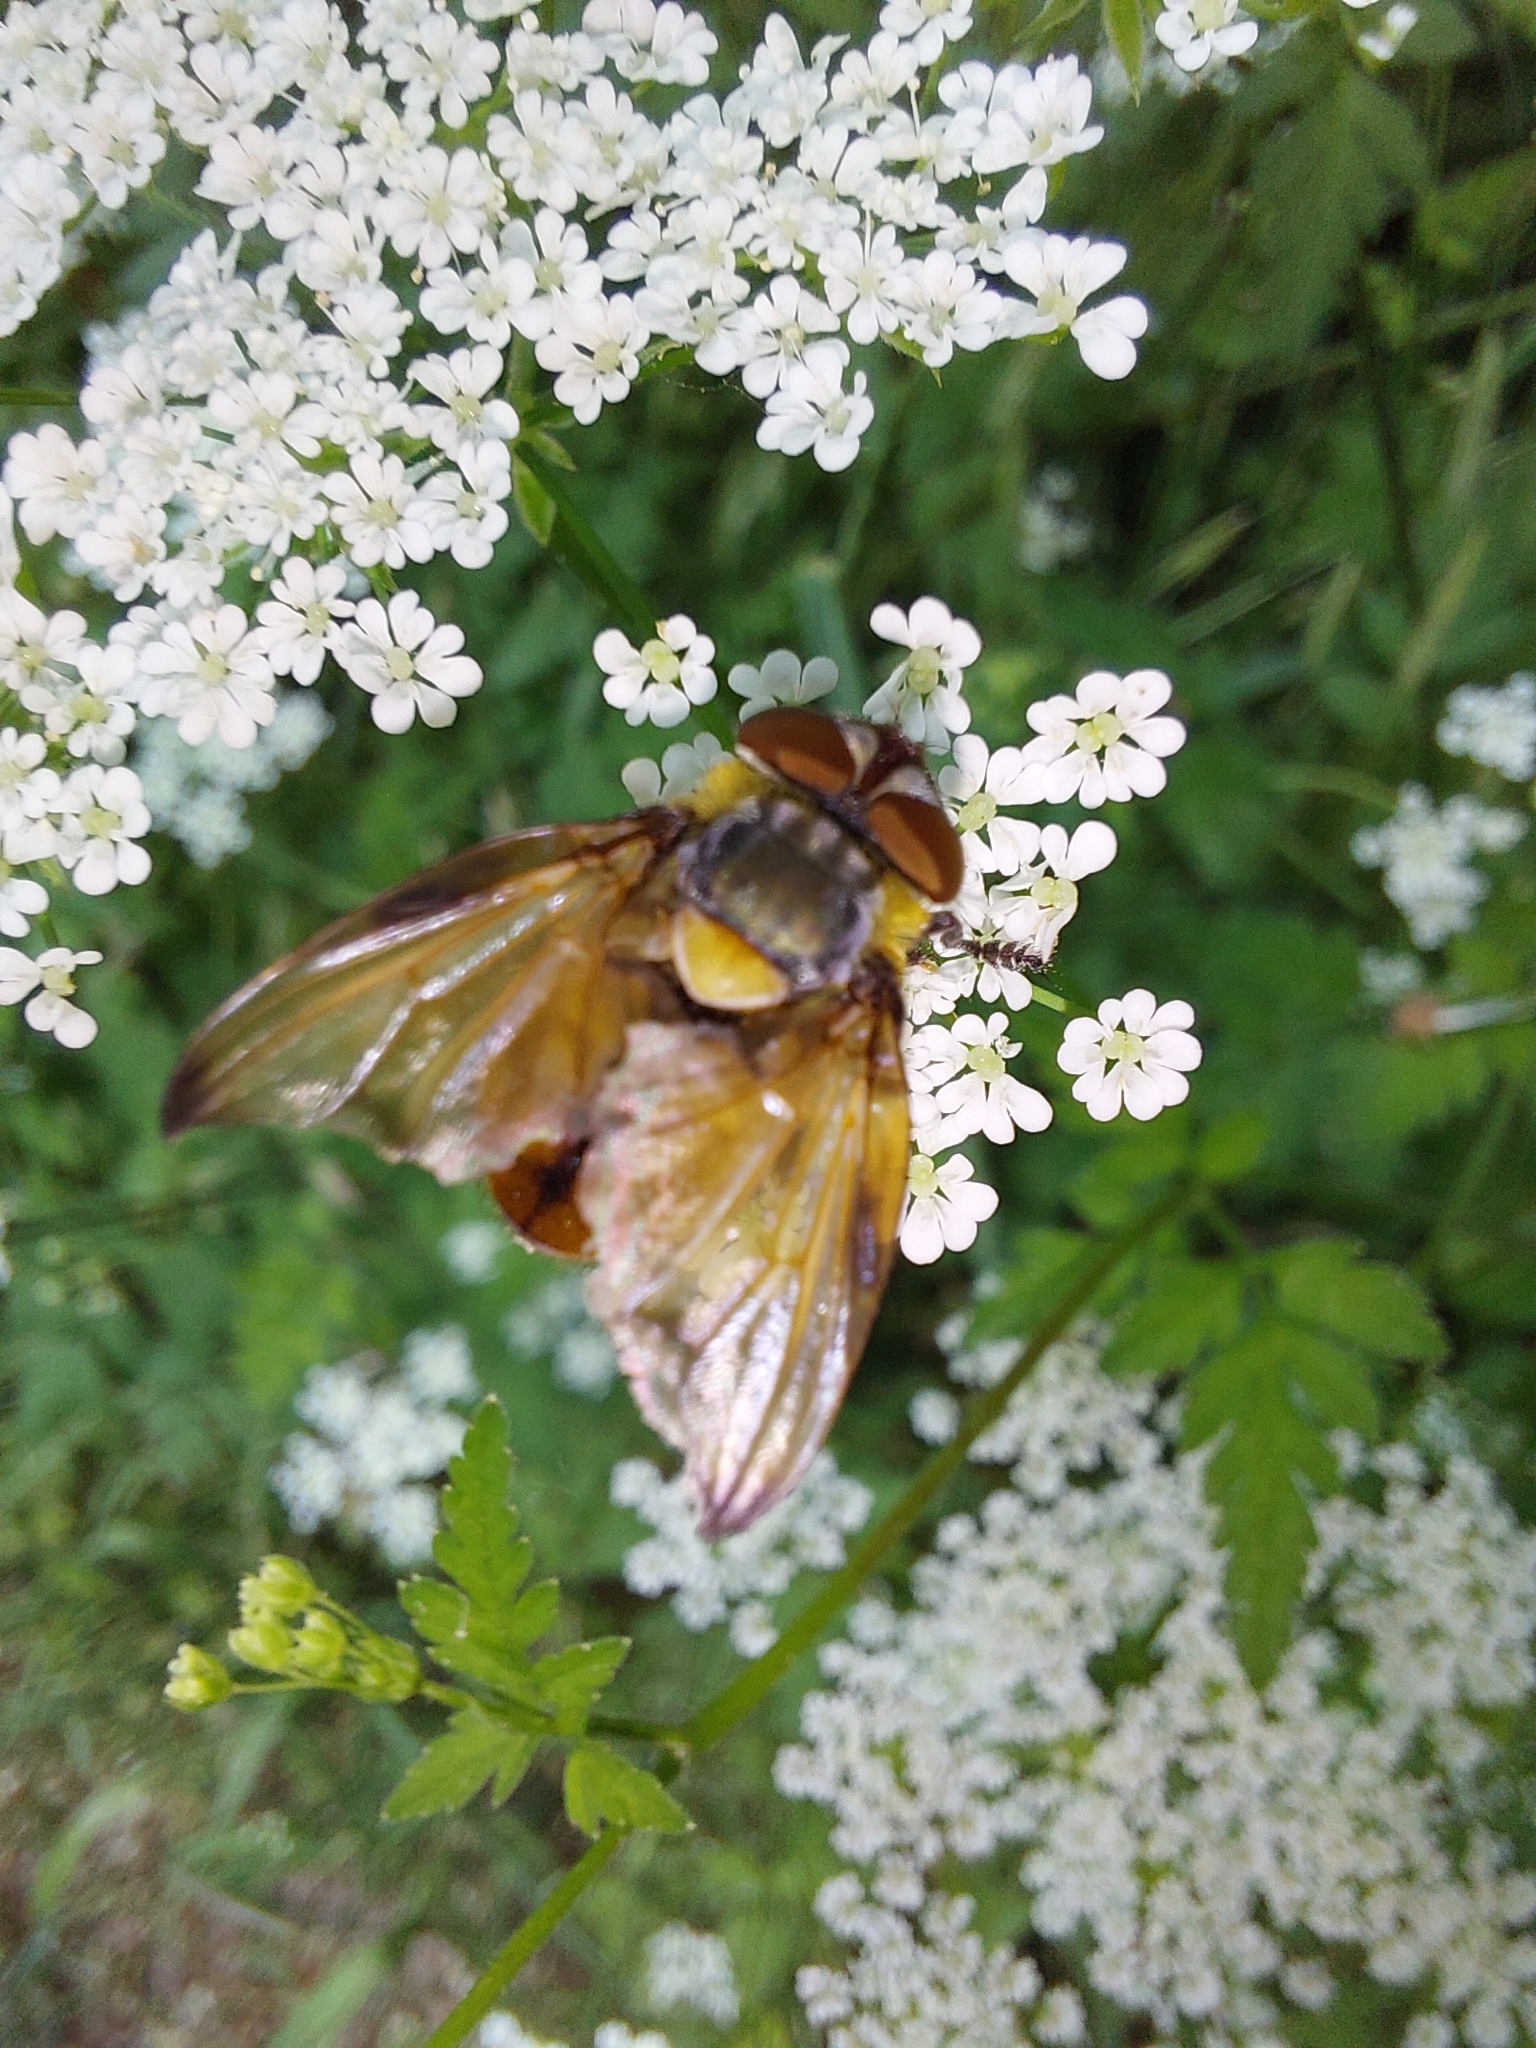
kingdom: Animalia
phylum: Arthropoda
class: Insecta
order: Diptera
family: Tachinidae
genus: Phasia
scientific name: Phasia hemiptera
